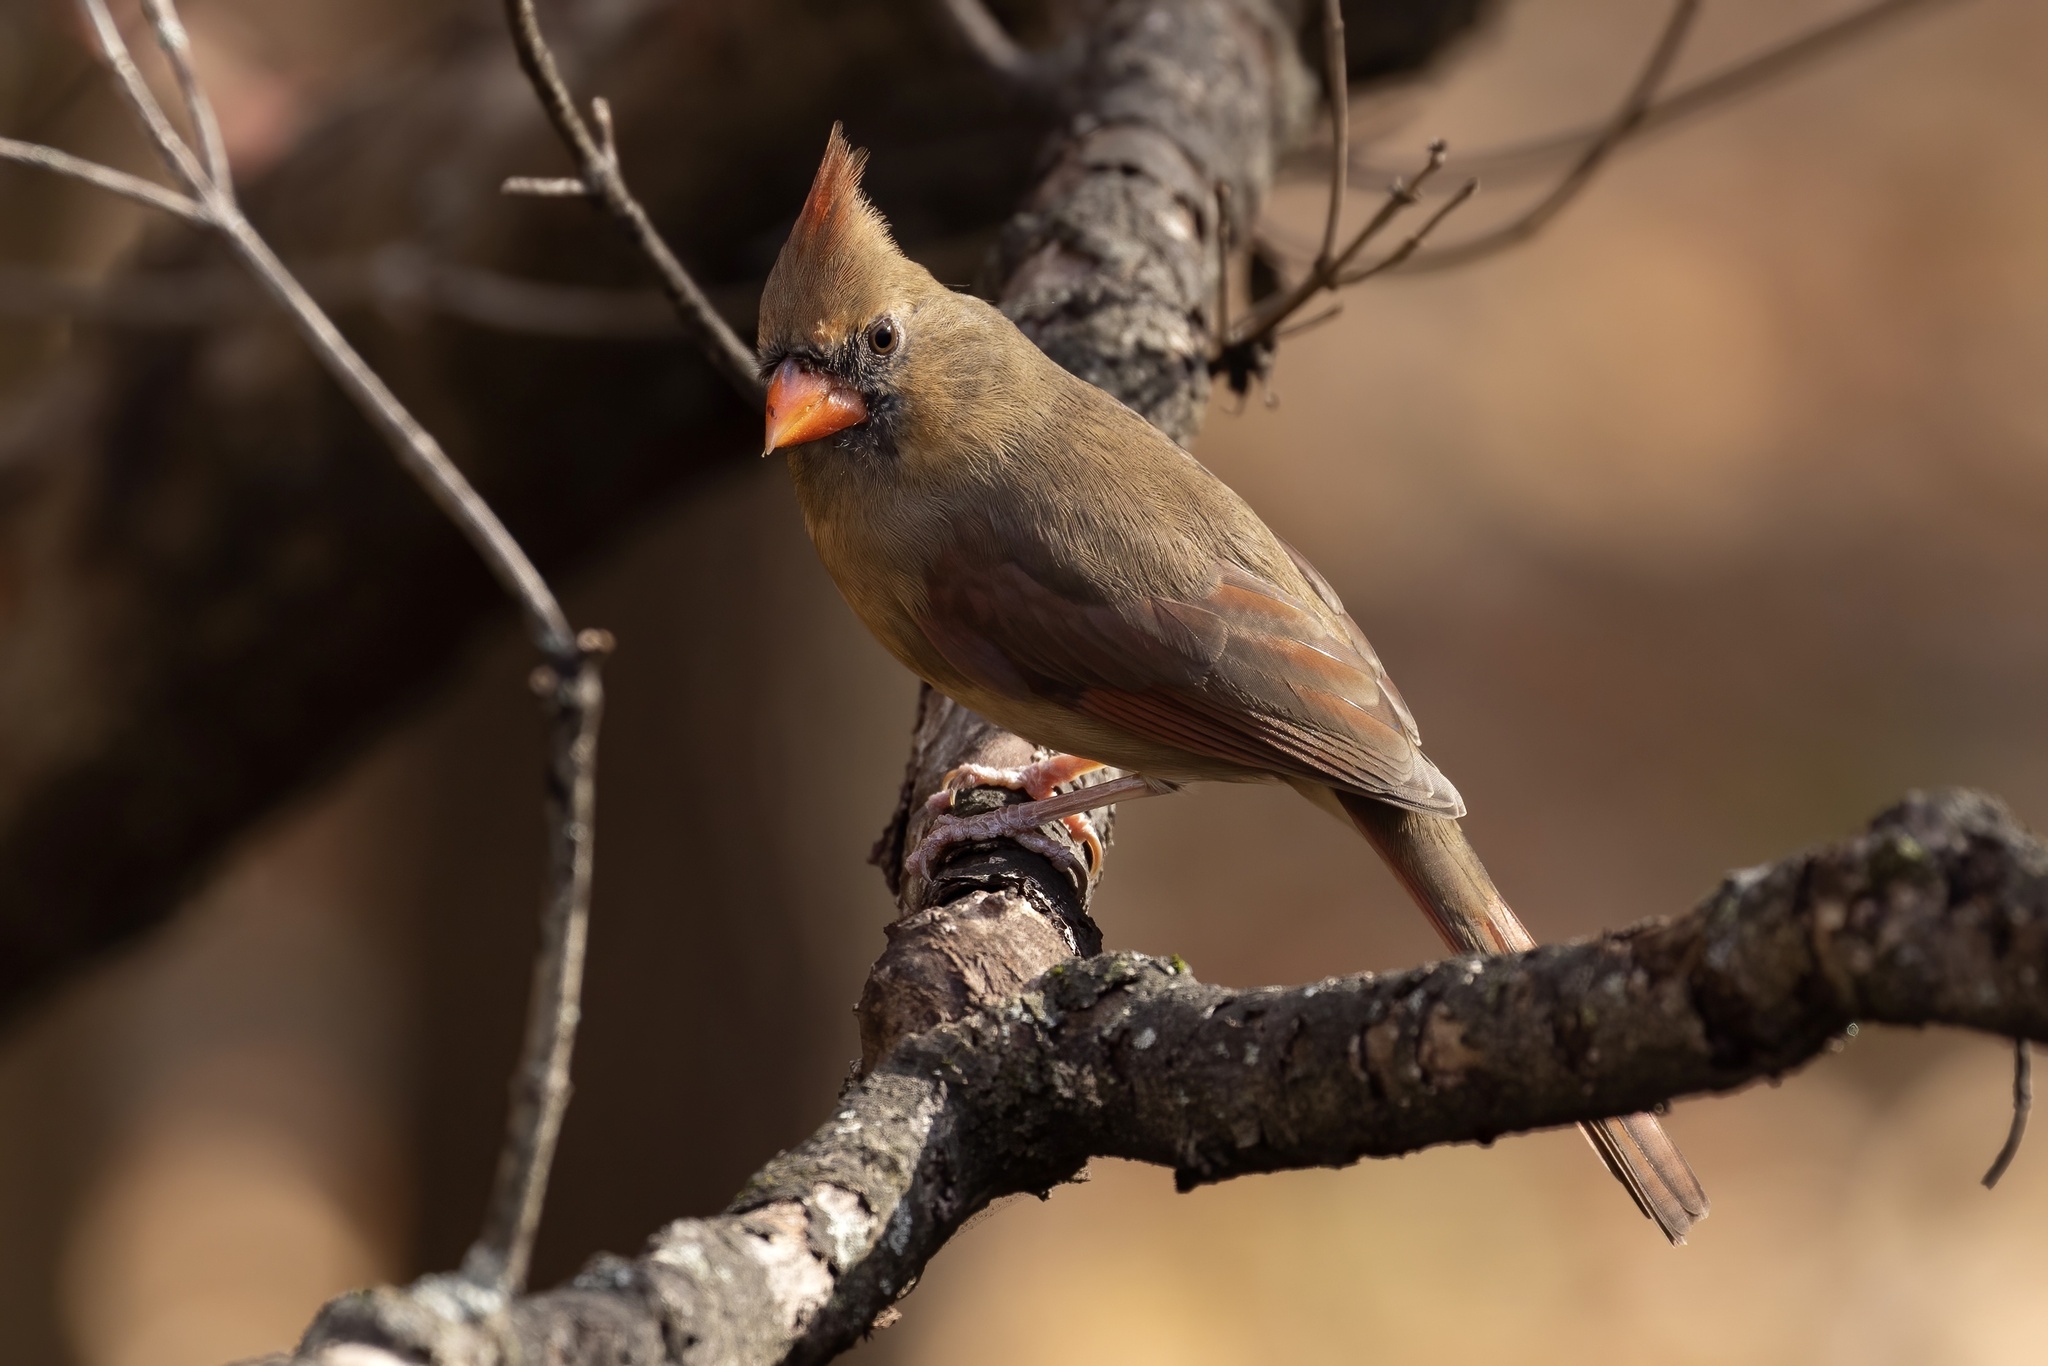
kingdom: Animalia
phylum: Chordata
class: Aves
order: Passeriformes
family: Cardinalidae
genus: Cardinalis
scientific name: Cardinalis cardinalis
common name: Northern cardinal
